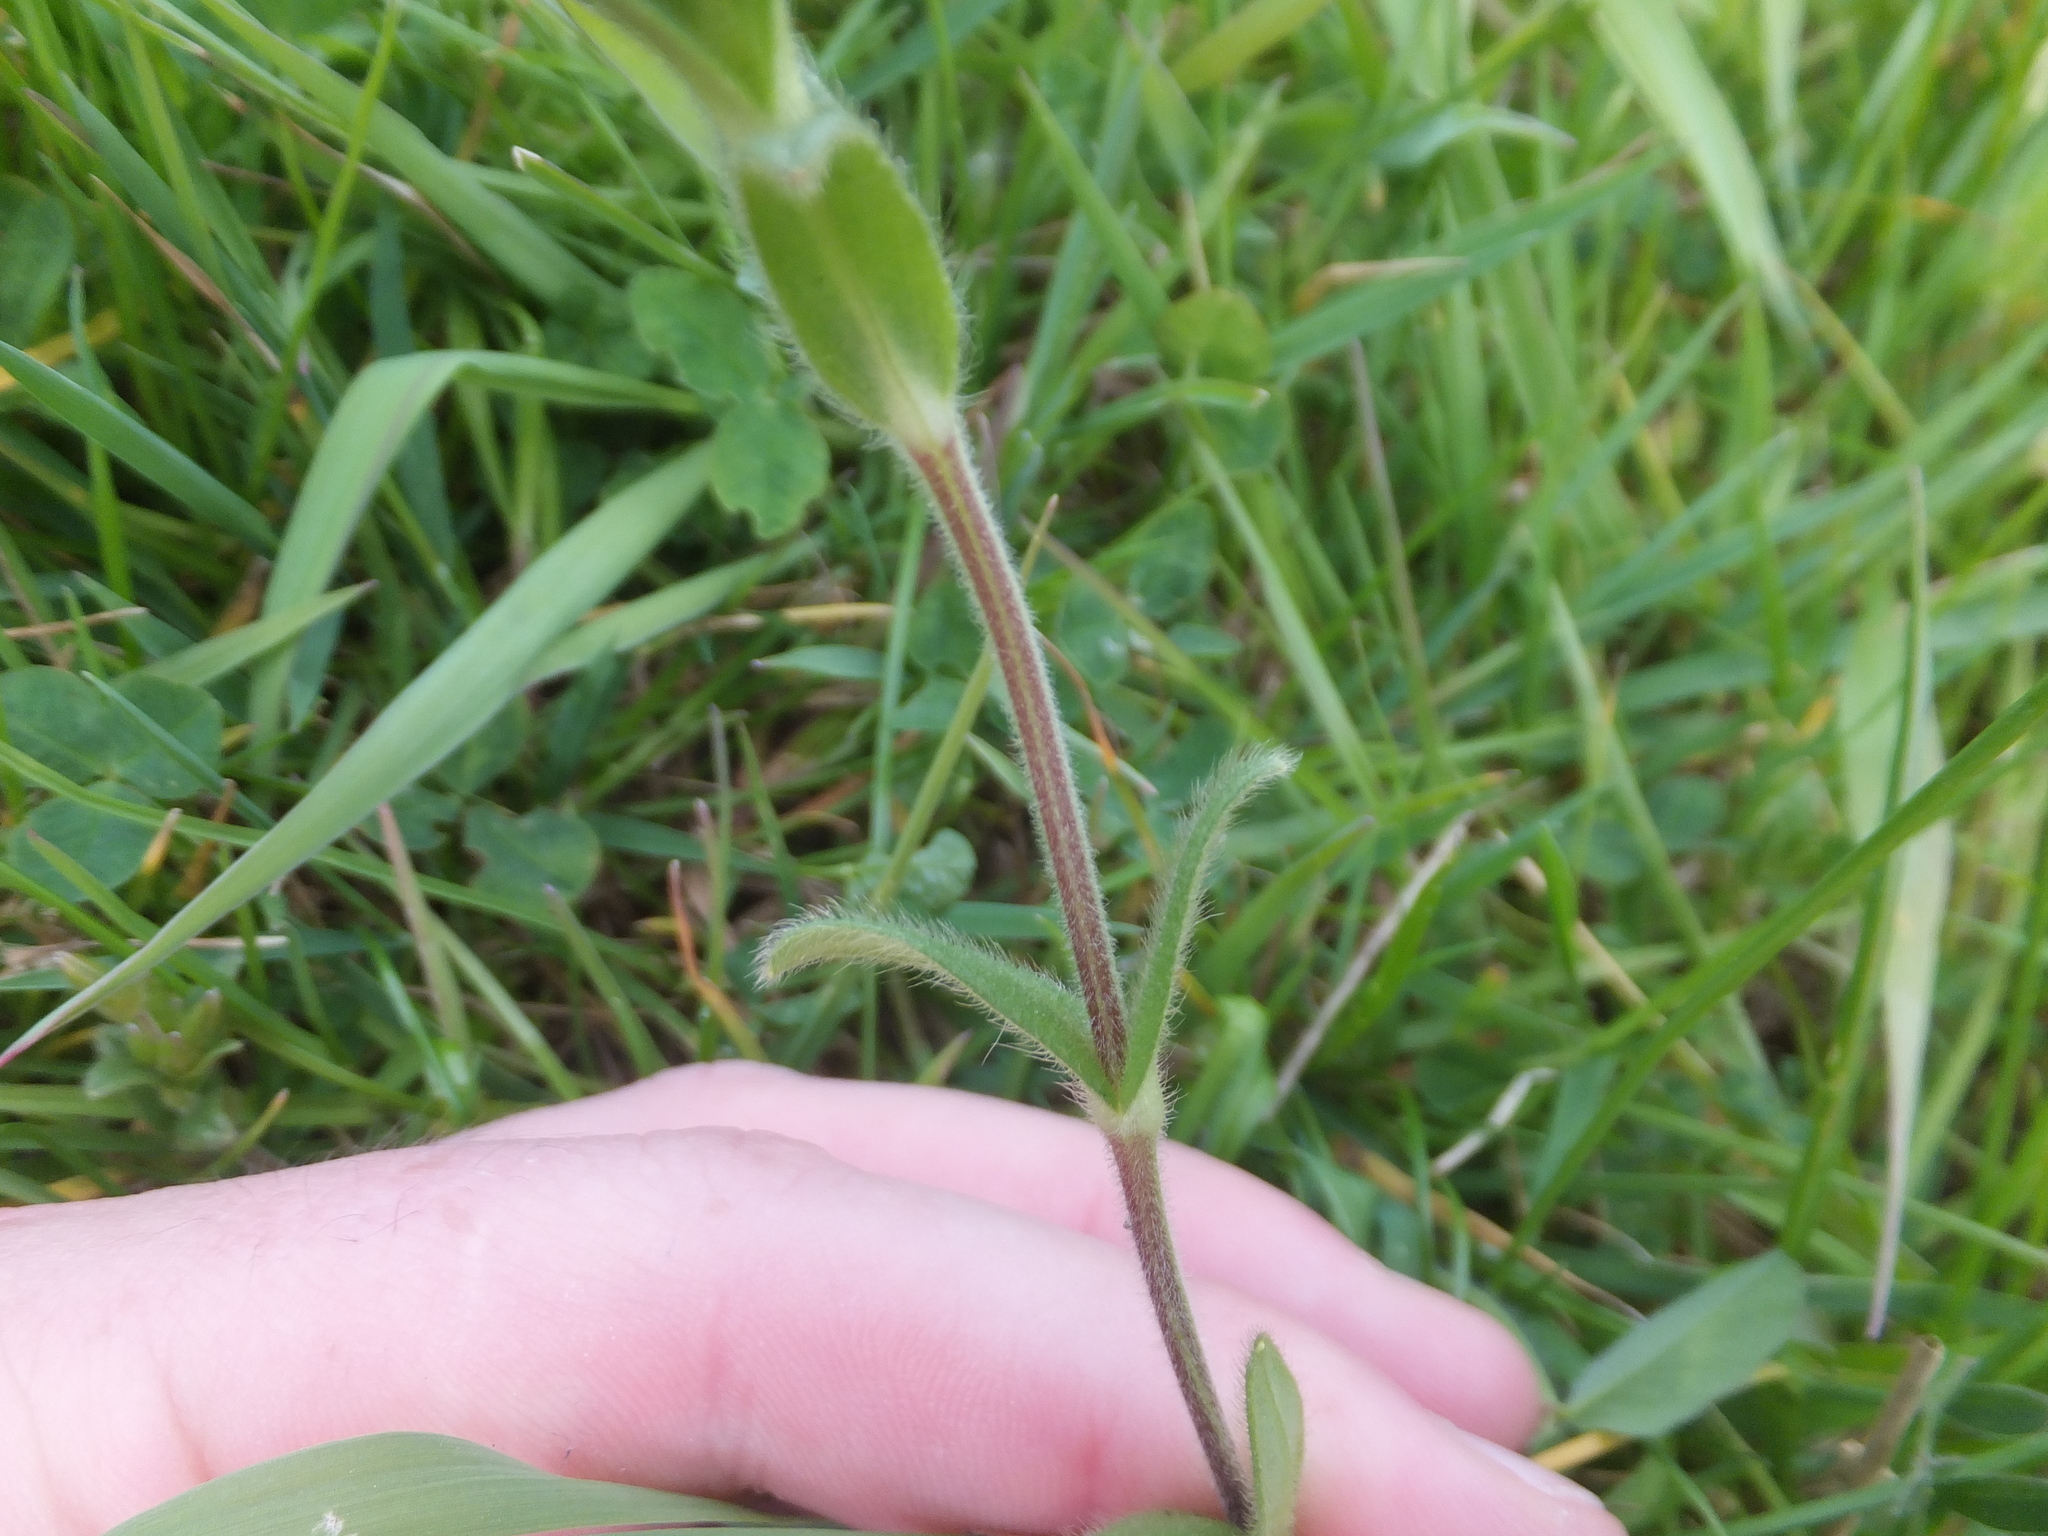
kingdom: Plantae
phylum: Tracheophyta
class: Magnoliopsida
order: Caryophyllales
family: Caryophyllaceae
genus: Cerastium
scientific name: Cerastium fontanum
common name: Common mouse-ear
